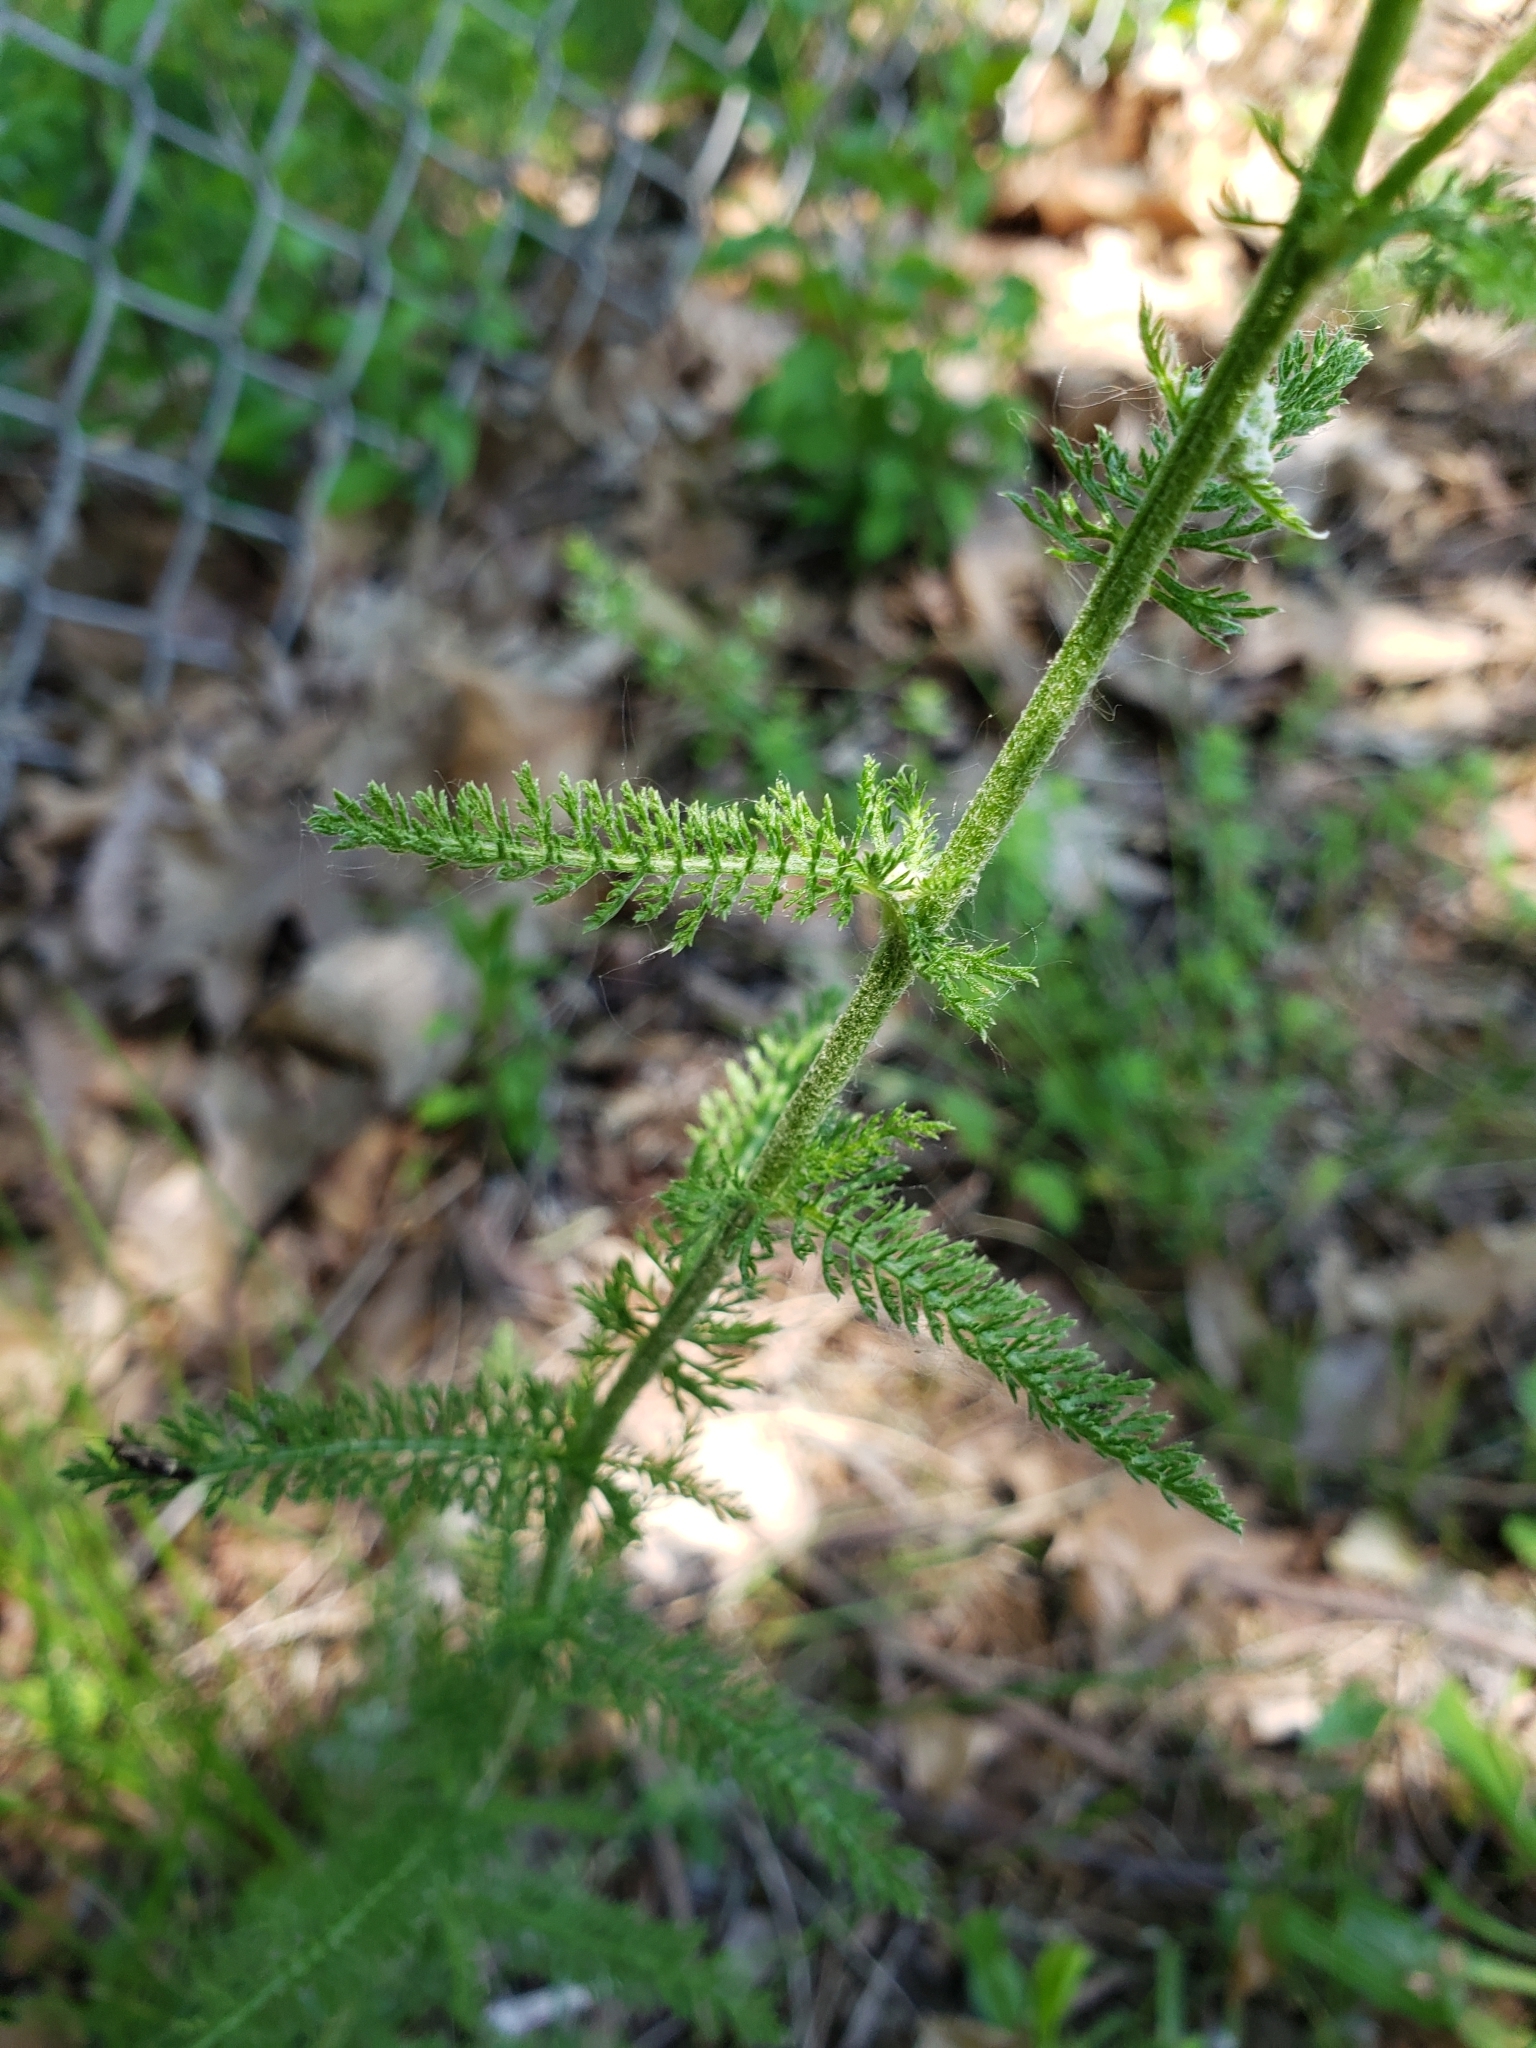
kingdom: Plantae
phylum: Tracheophyta
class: Magnoliopsida
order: Asterales
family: Asteraceae
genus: Achillea
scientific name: Achillea millefolium
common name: Yarrow
